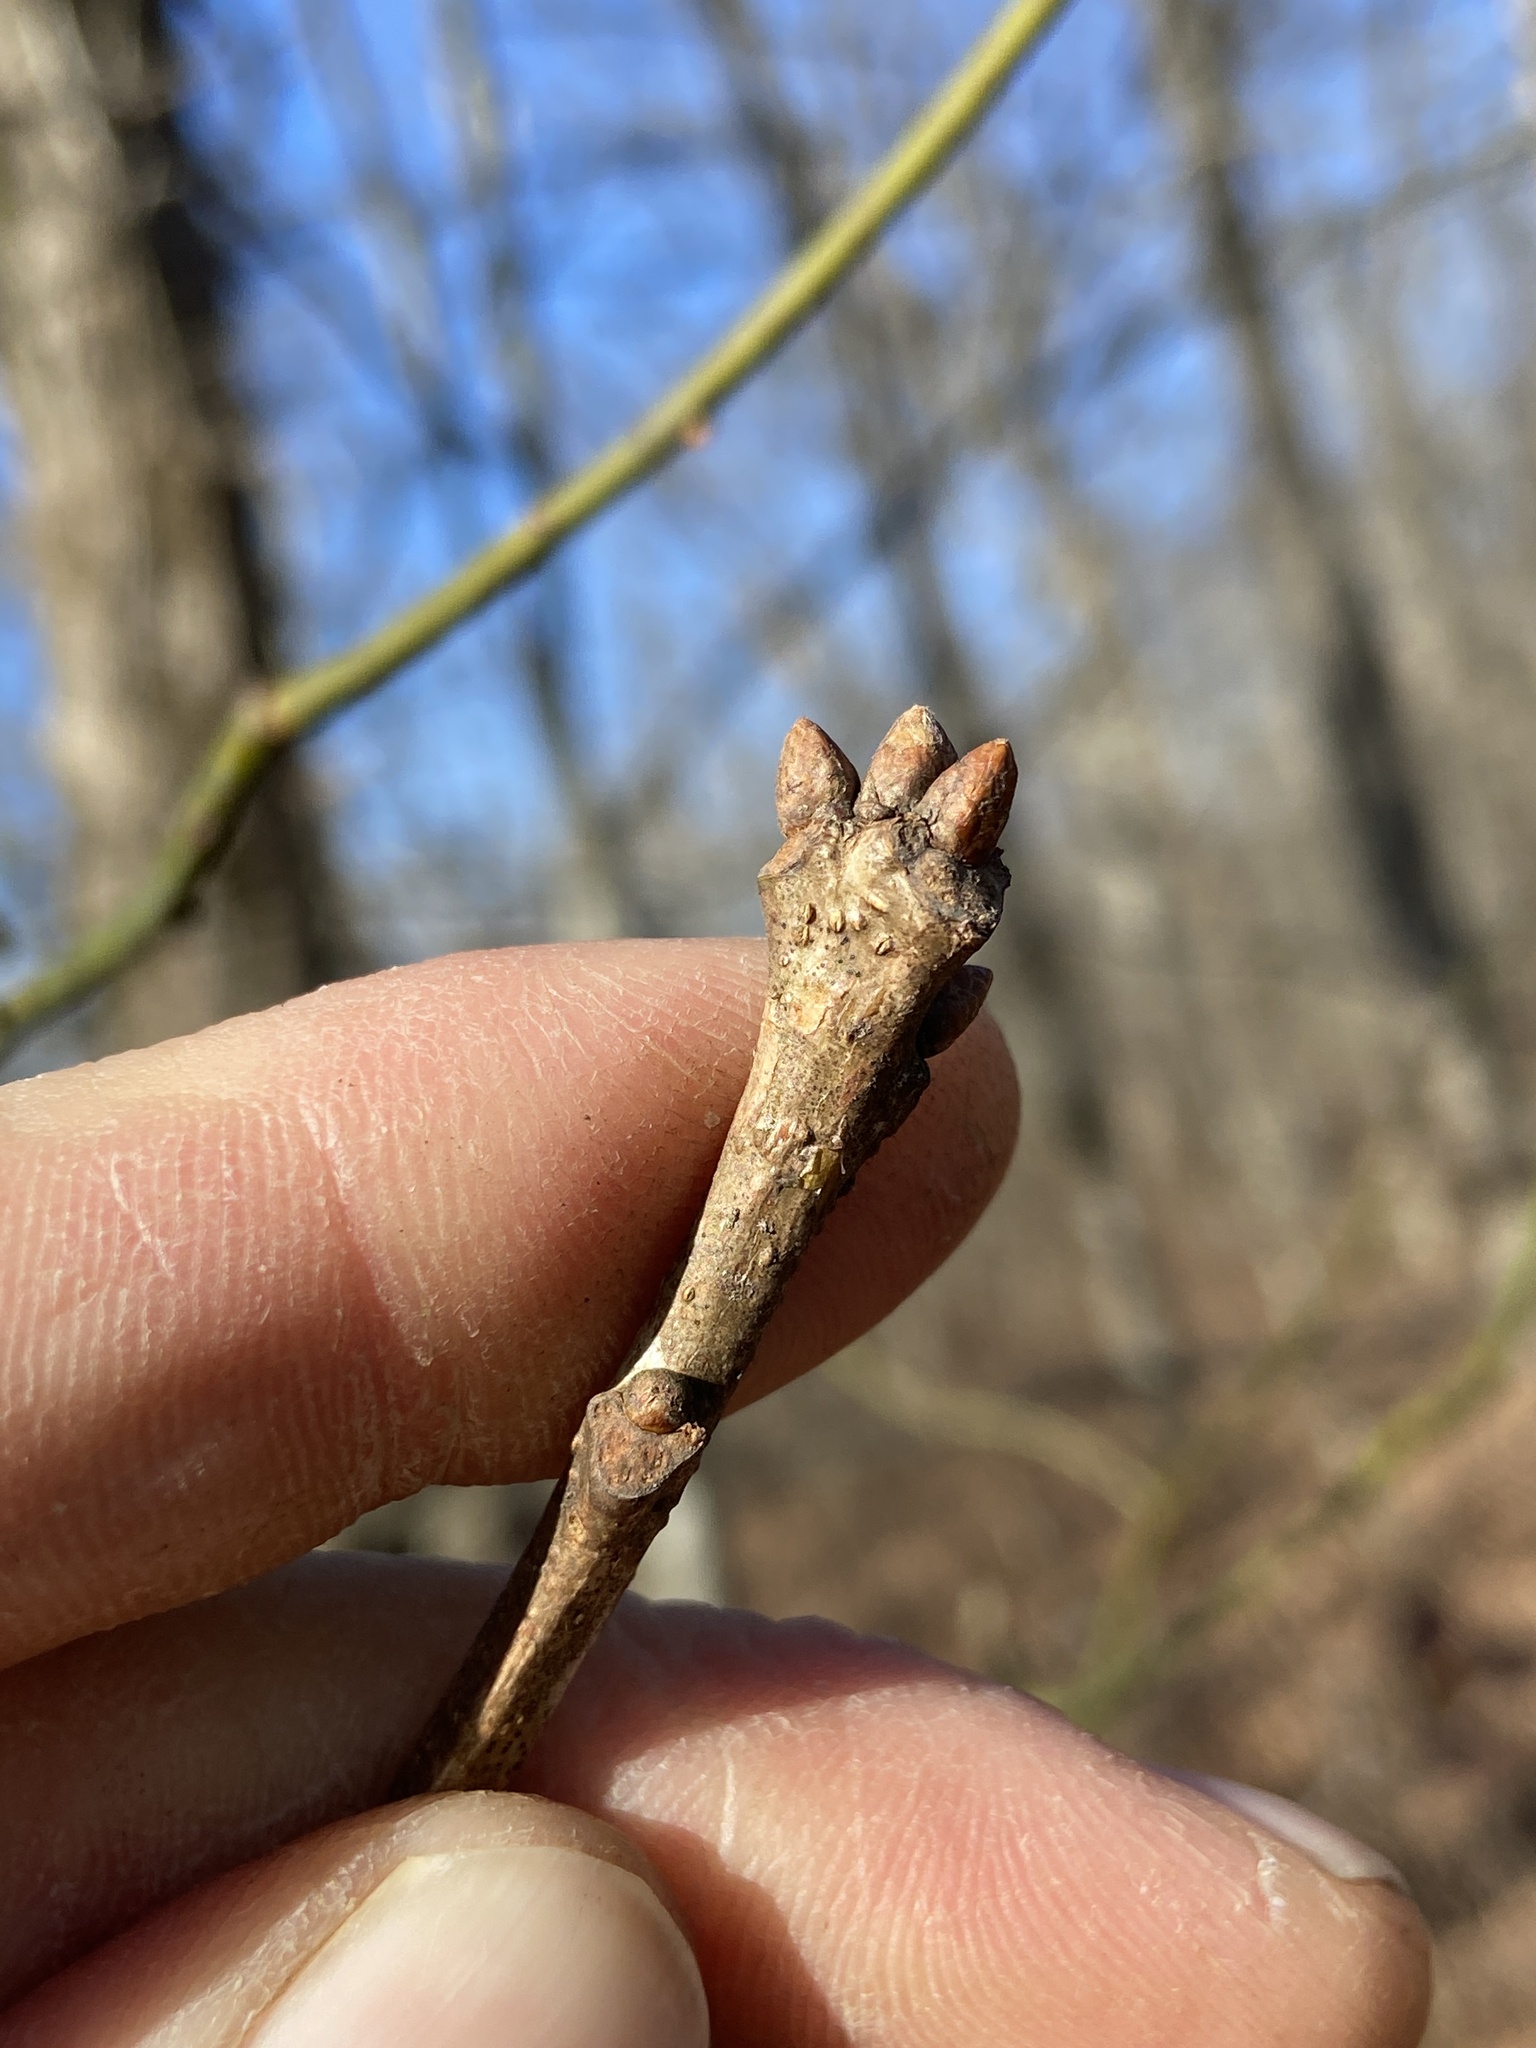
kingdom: Plantae
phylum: Tracheophyta
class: Magnoliopsida
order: Fagales
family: Fagaceae
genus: Quercus
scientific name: Quercus alba
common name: White oak
